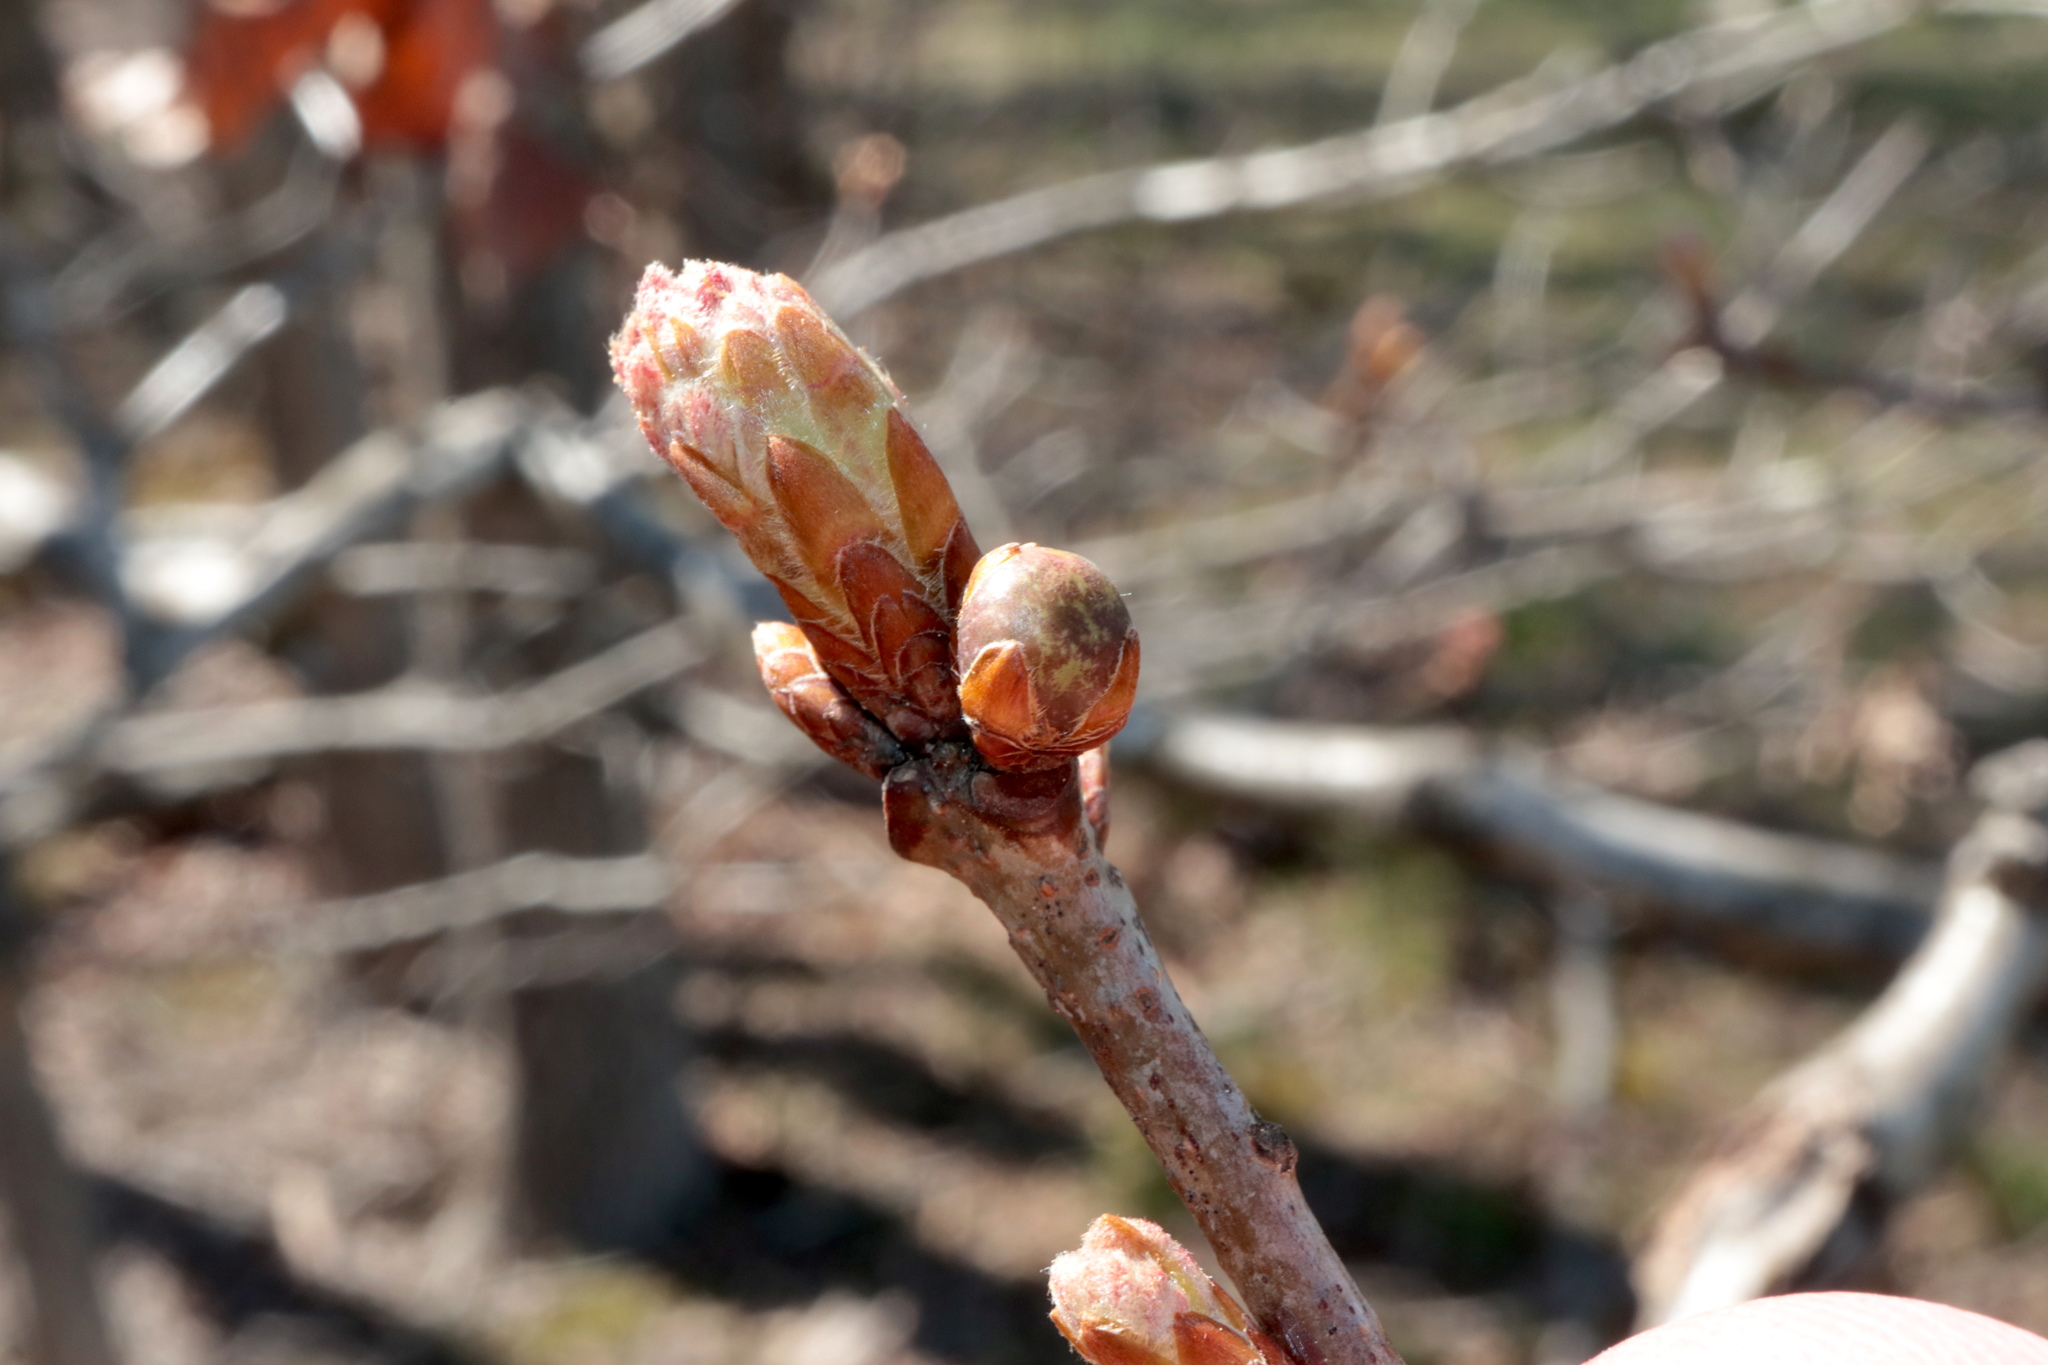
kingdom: Animalia
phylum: Arthropoda
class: Insecta
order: Hymenoptera
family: Cynipidae
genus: Neuroterus
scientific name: Neuroterus
